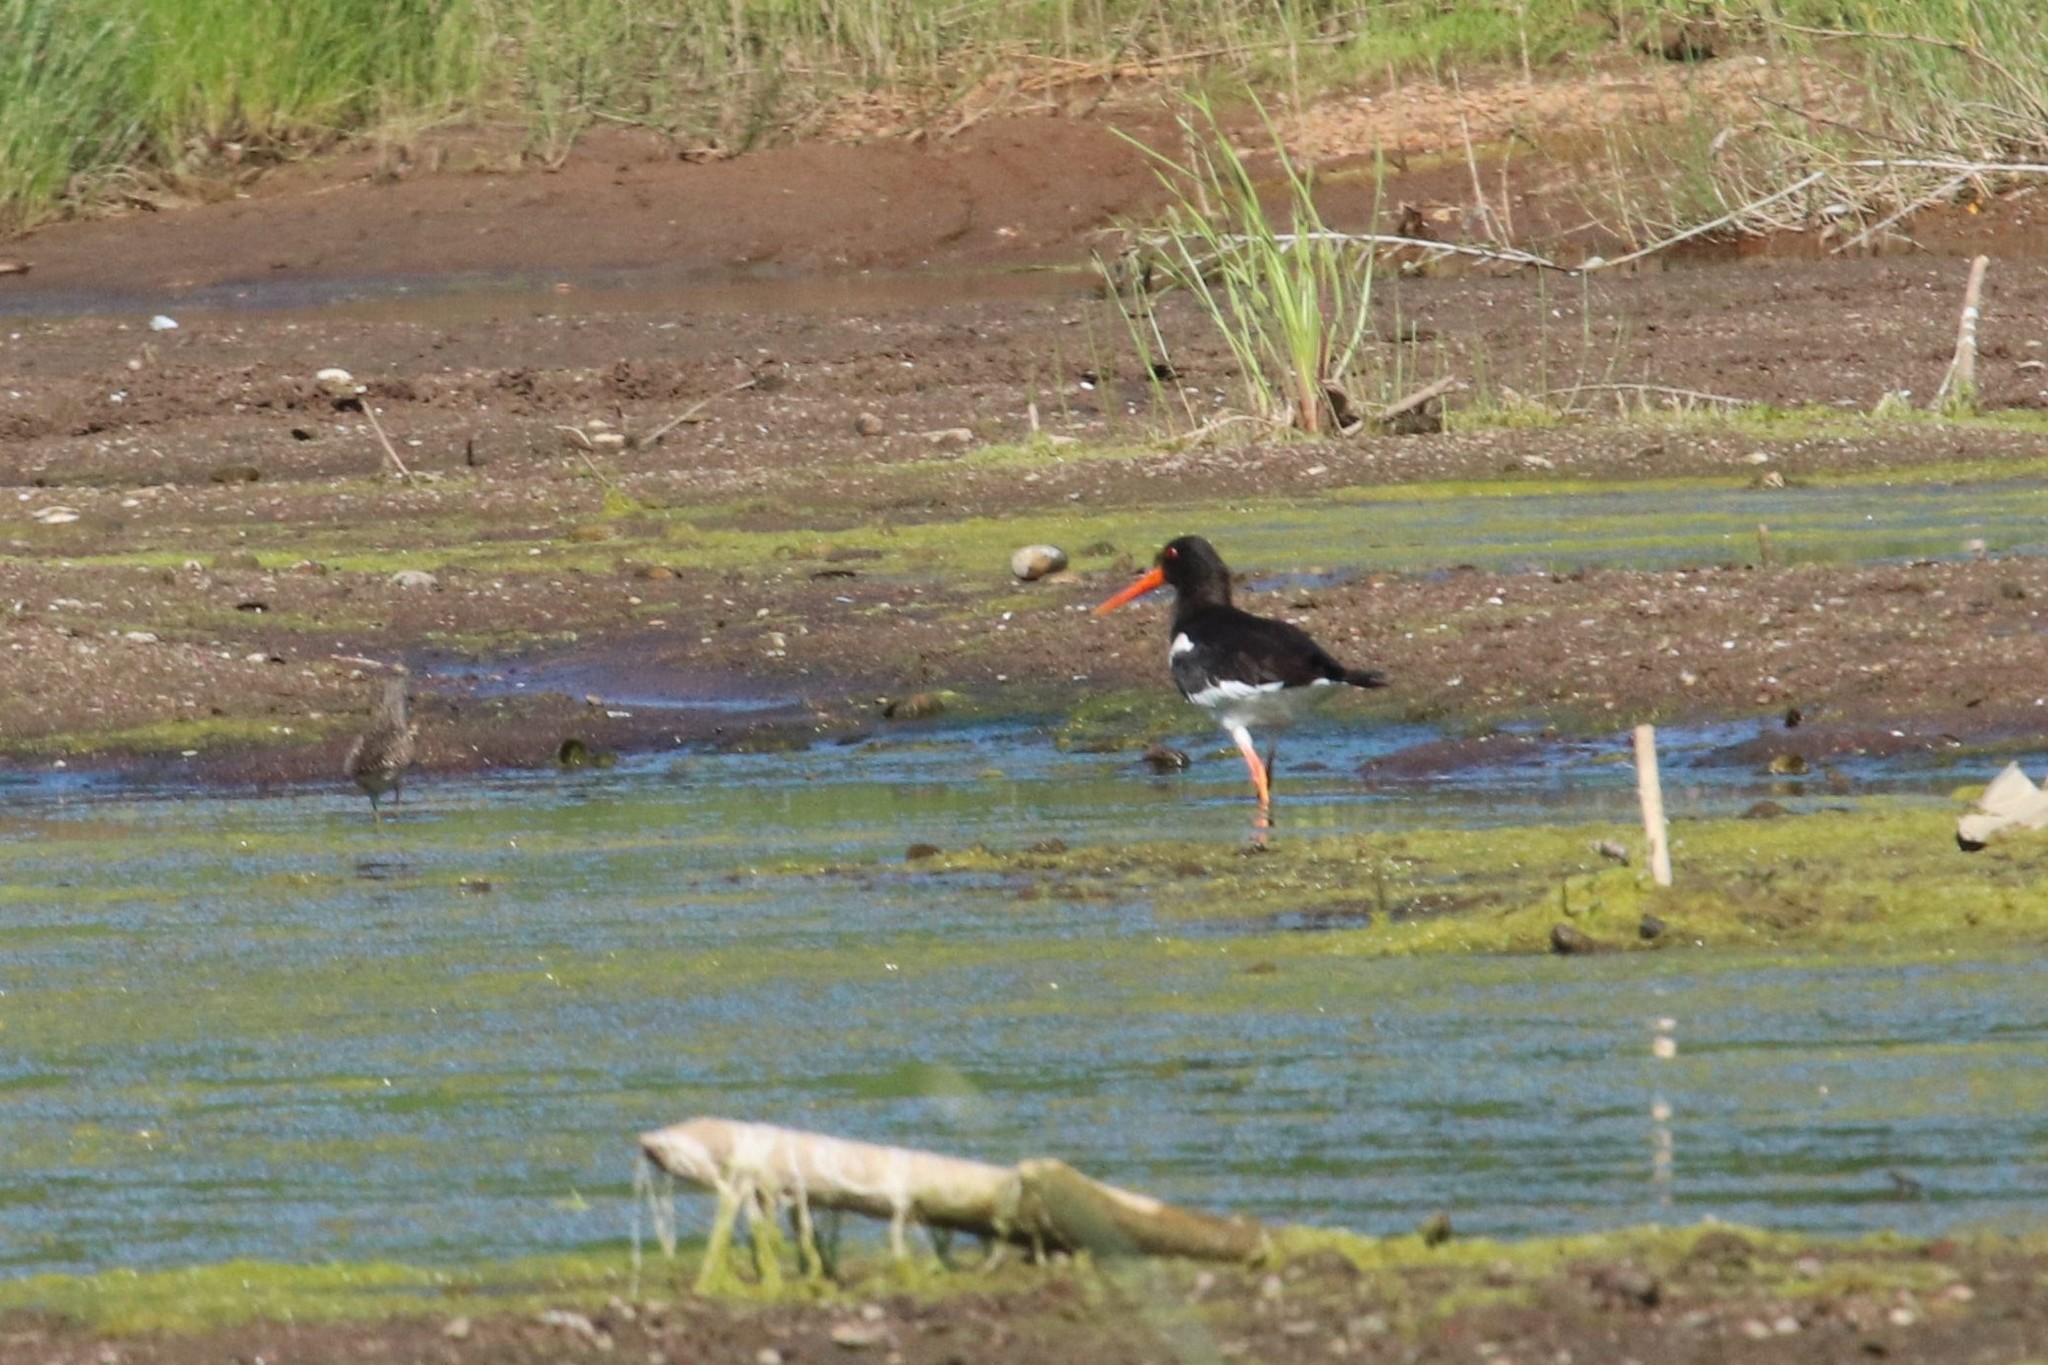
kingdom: Animalia
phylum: Chordata
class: Aves
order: Charadriiformes
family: Haematopodidae
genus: Haematopus
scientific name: Haematopus ostralegus
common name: Eurasian oystercatcher
